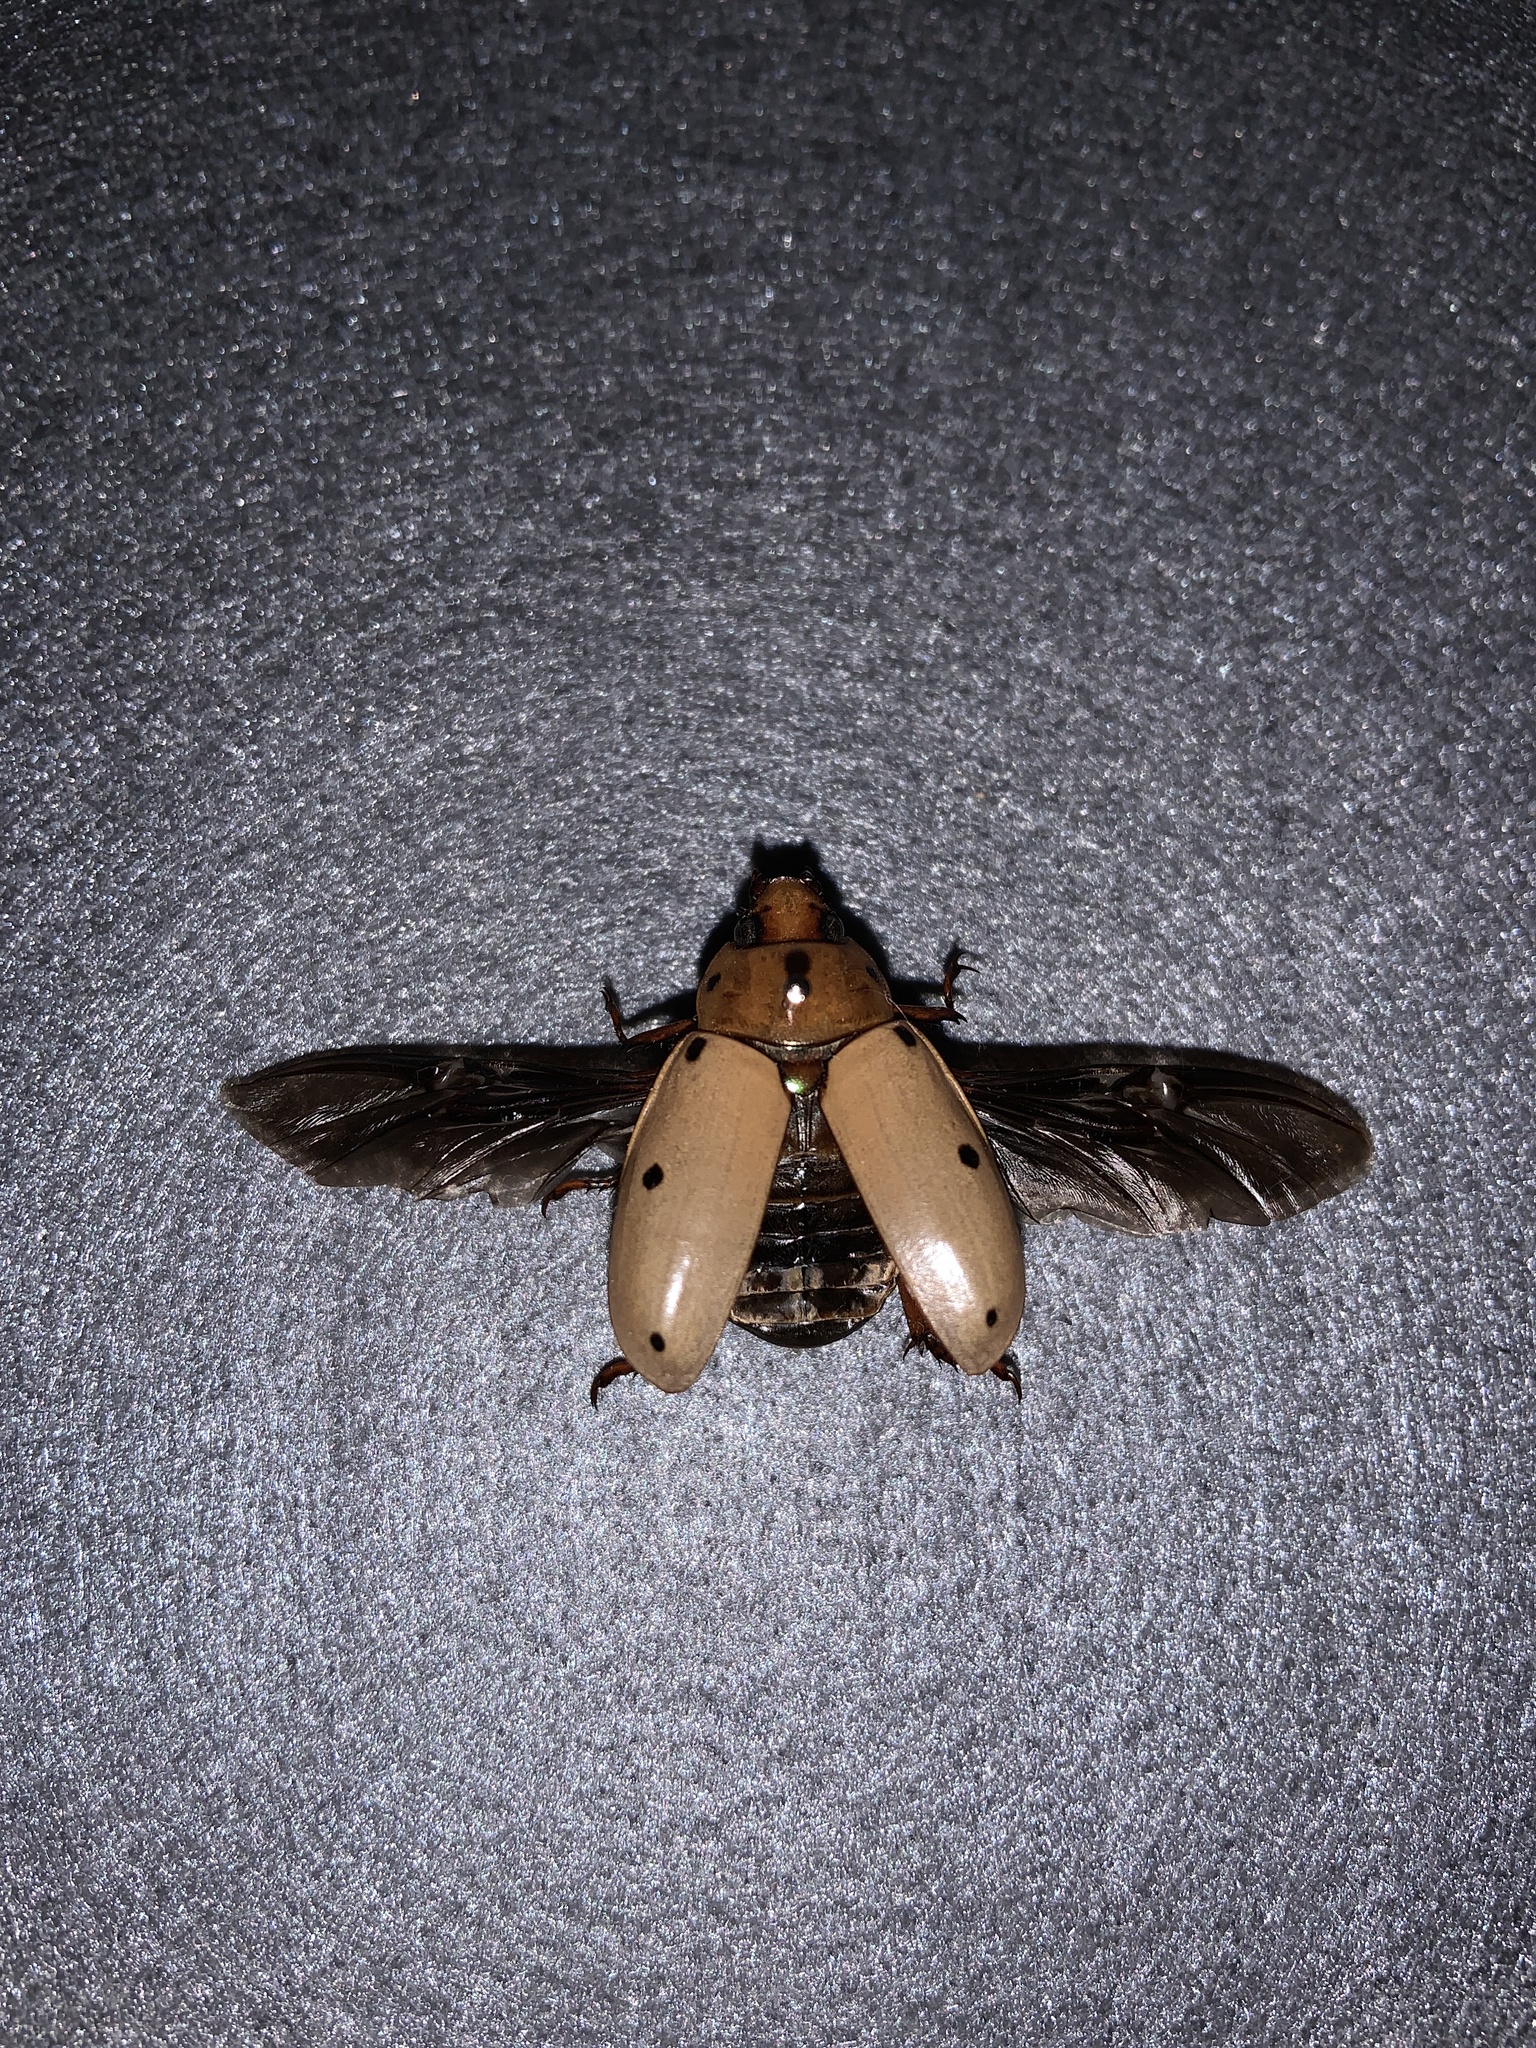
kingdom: Animalia
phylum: Arthropoda
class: Insecta
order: Coleoptera
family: Scarabaeidae
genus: Pelidnota
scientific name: Pelidnota punctata
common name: Grapevine beetle
